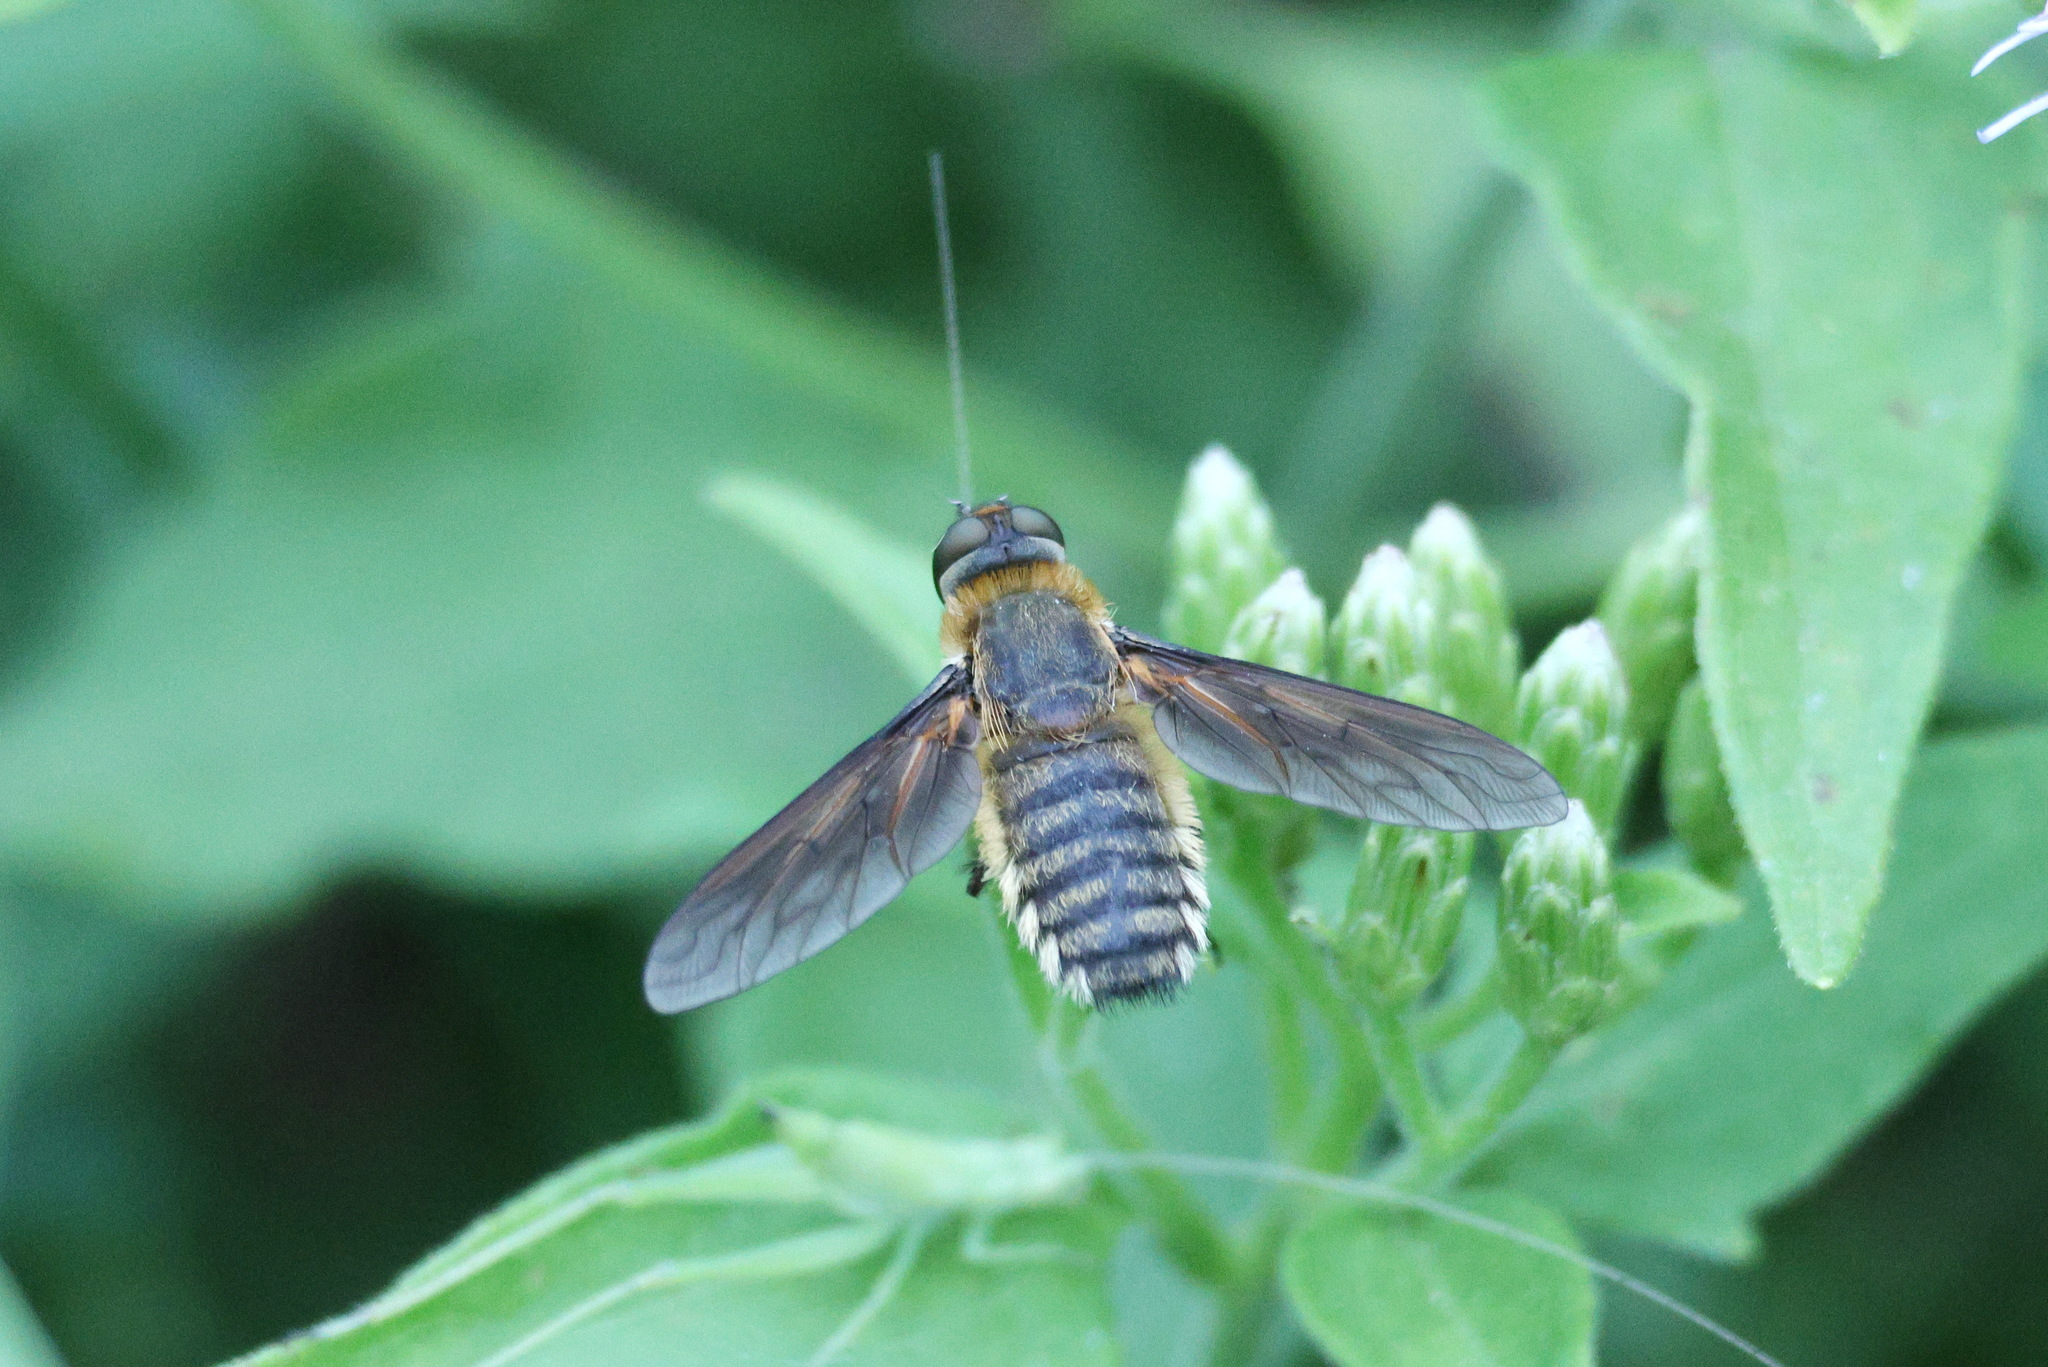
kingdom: Animalia
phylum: Arthropoda
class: Insecta
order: Diptera
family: Bombyliidae
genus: Poecilanthrax
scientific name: Poecilanthrax lucifer
